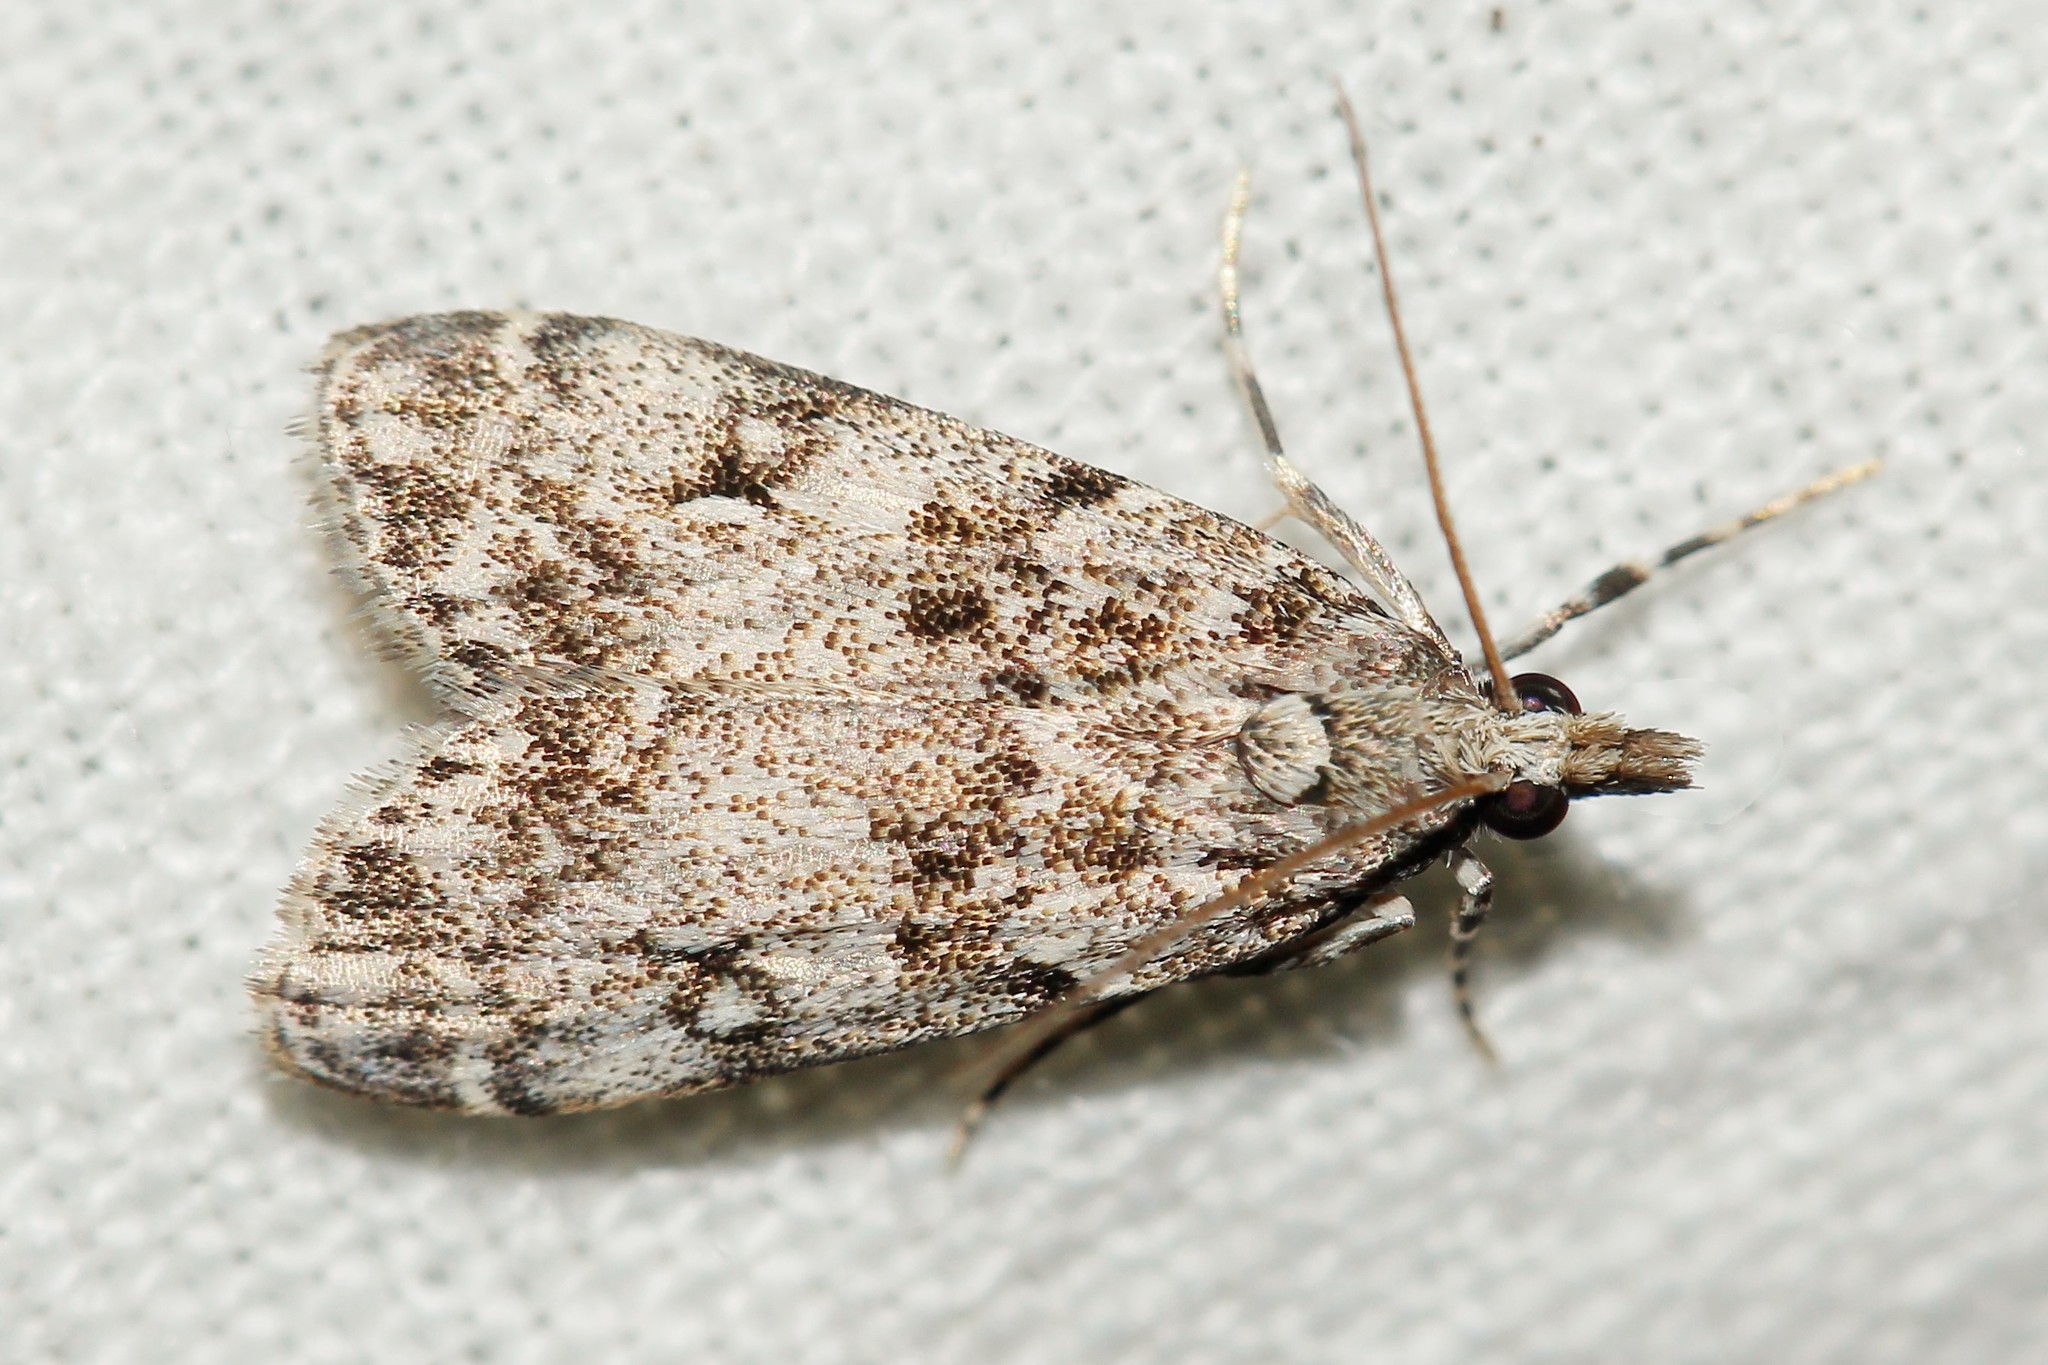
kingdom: Animalia
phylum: Arthropoda
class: Insecta
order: Lepidoptera
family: Crambidae
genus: Eudonia
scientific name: Eudonia lacustrata
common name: Little grey
